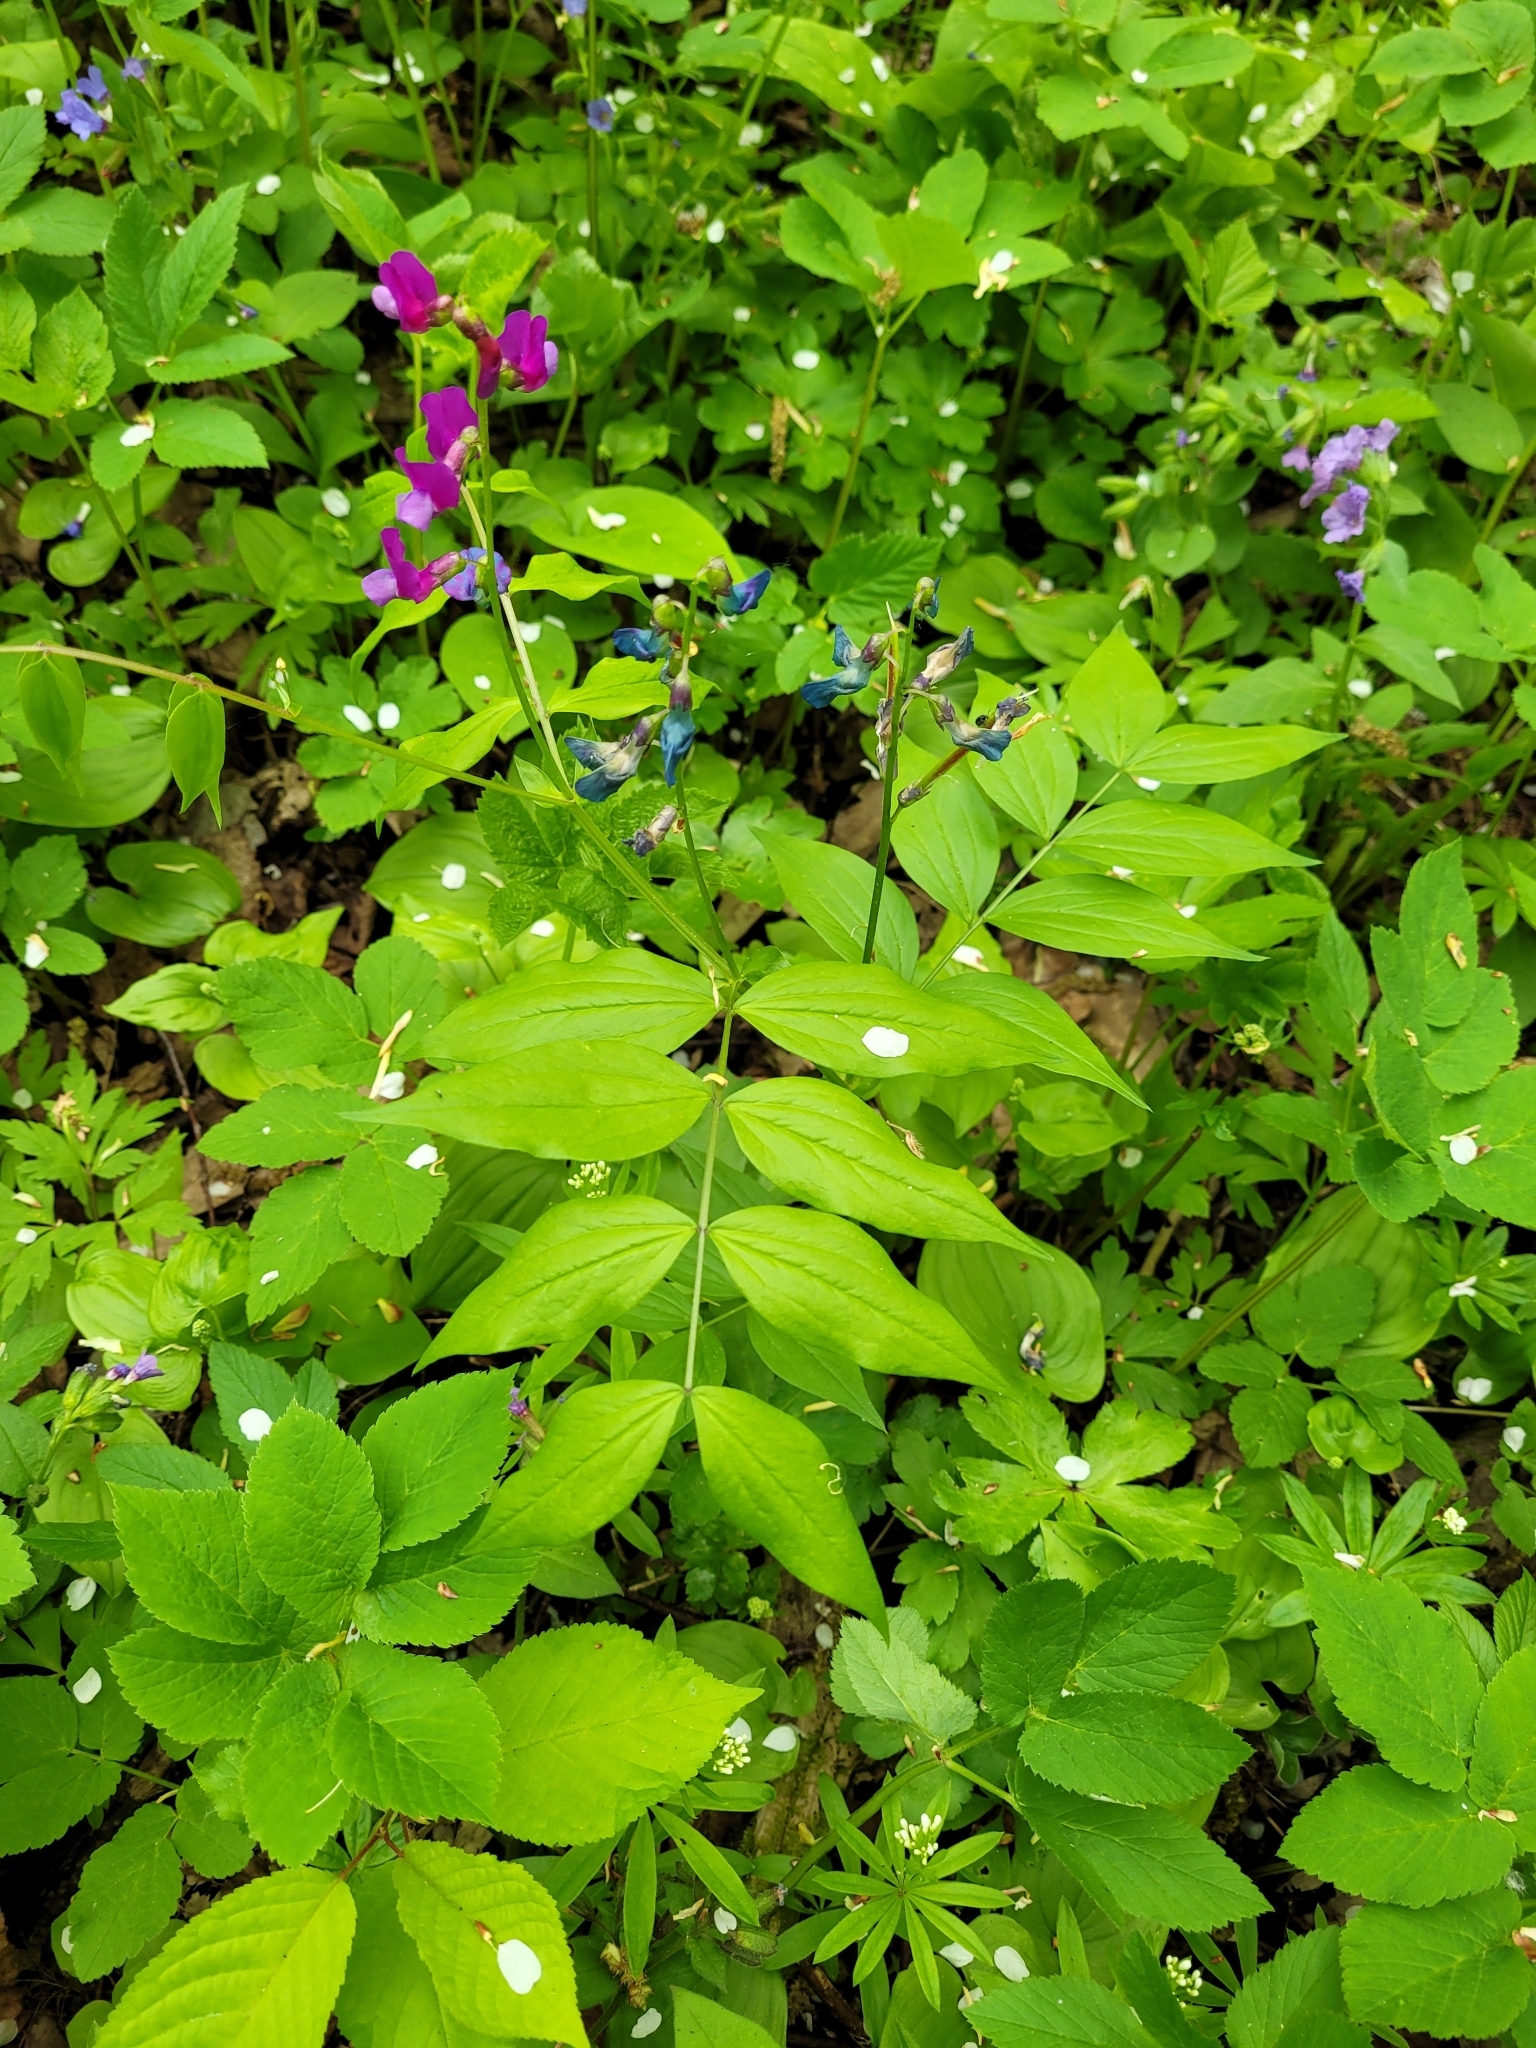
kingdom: Plantae
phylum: Tracheophyta
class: Magnoliopsida
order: Fabales
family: Fabaceae
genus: Lathyrus
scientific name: Lathyrus vernus
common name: Spring pea
